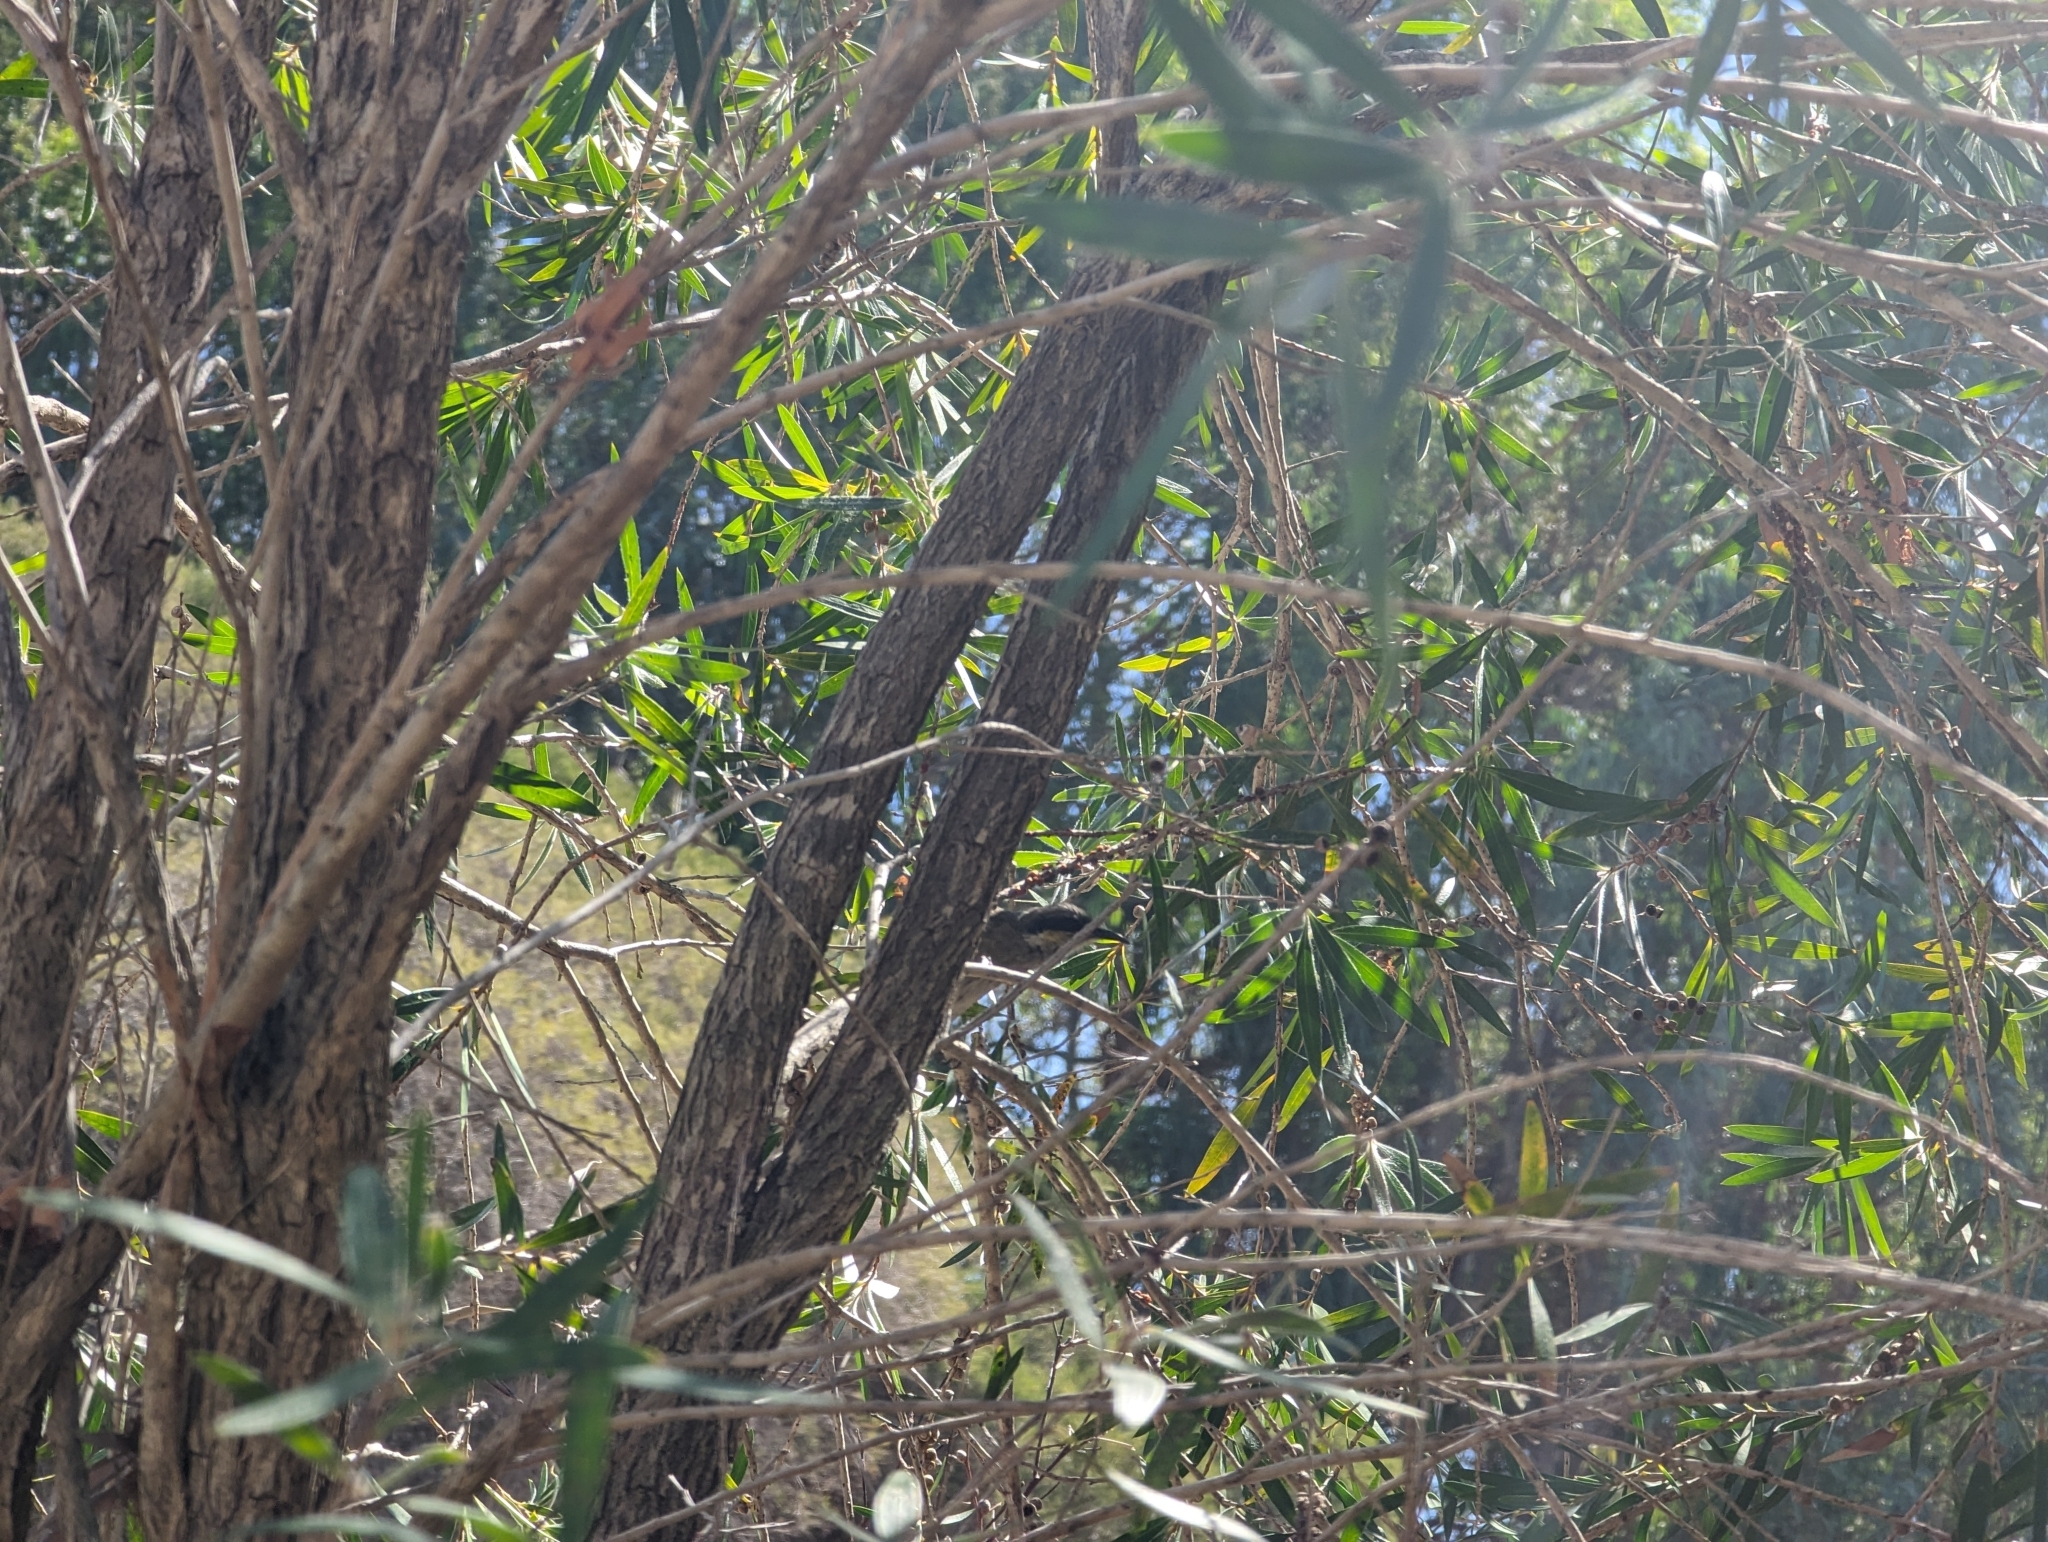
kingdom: Animalia
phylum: Chordata
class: Aves
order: Passeriformes
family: Meliphagidae
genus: Gavicalis
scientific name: Gavicalis virescens
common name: Singing honeyeater
